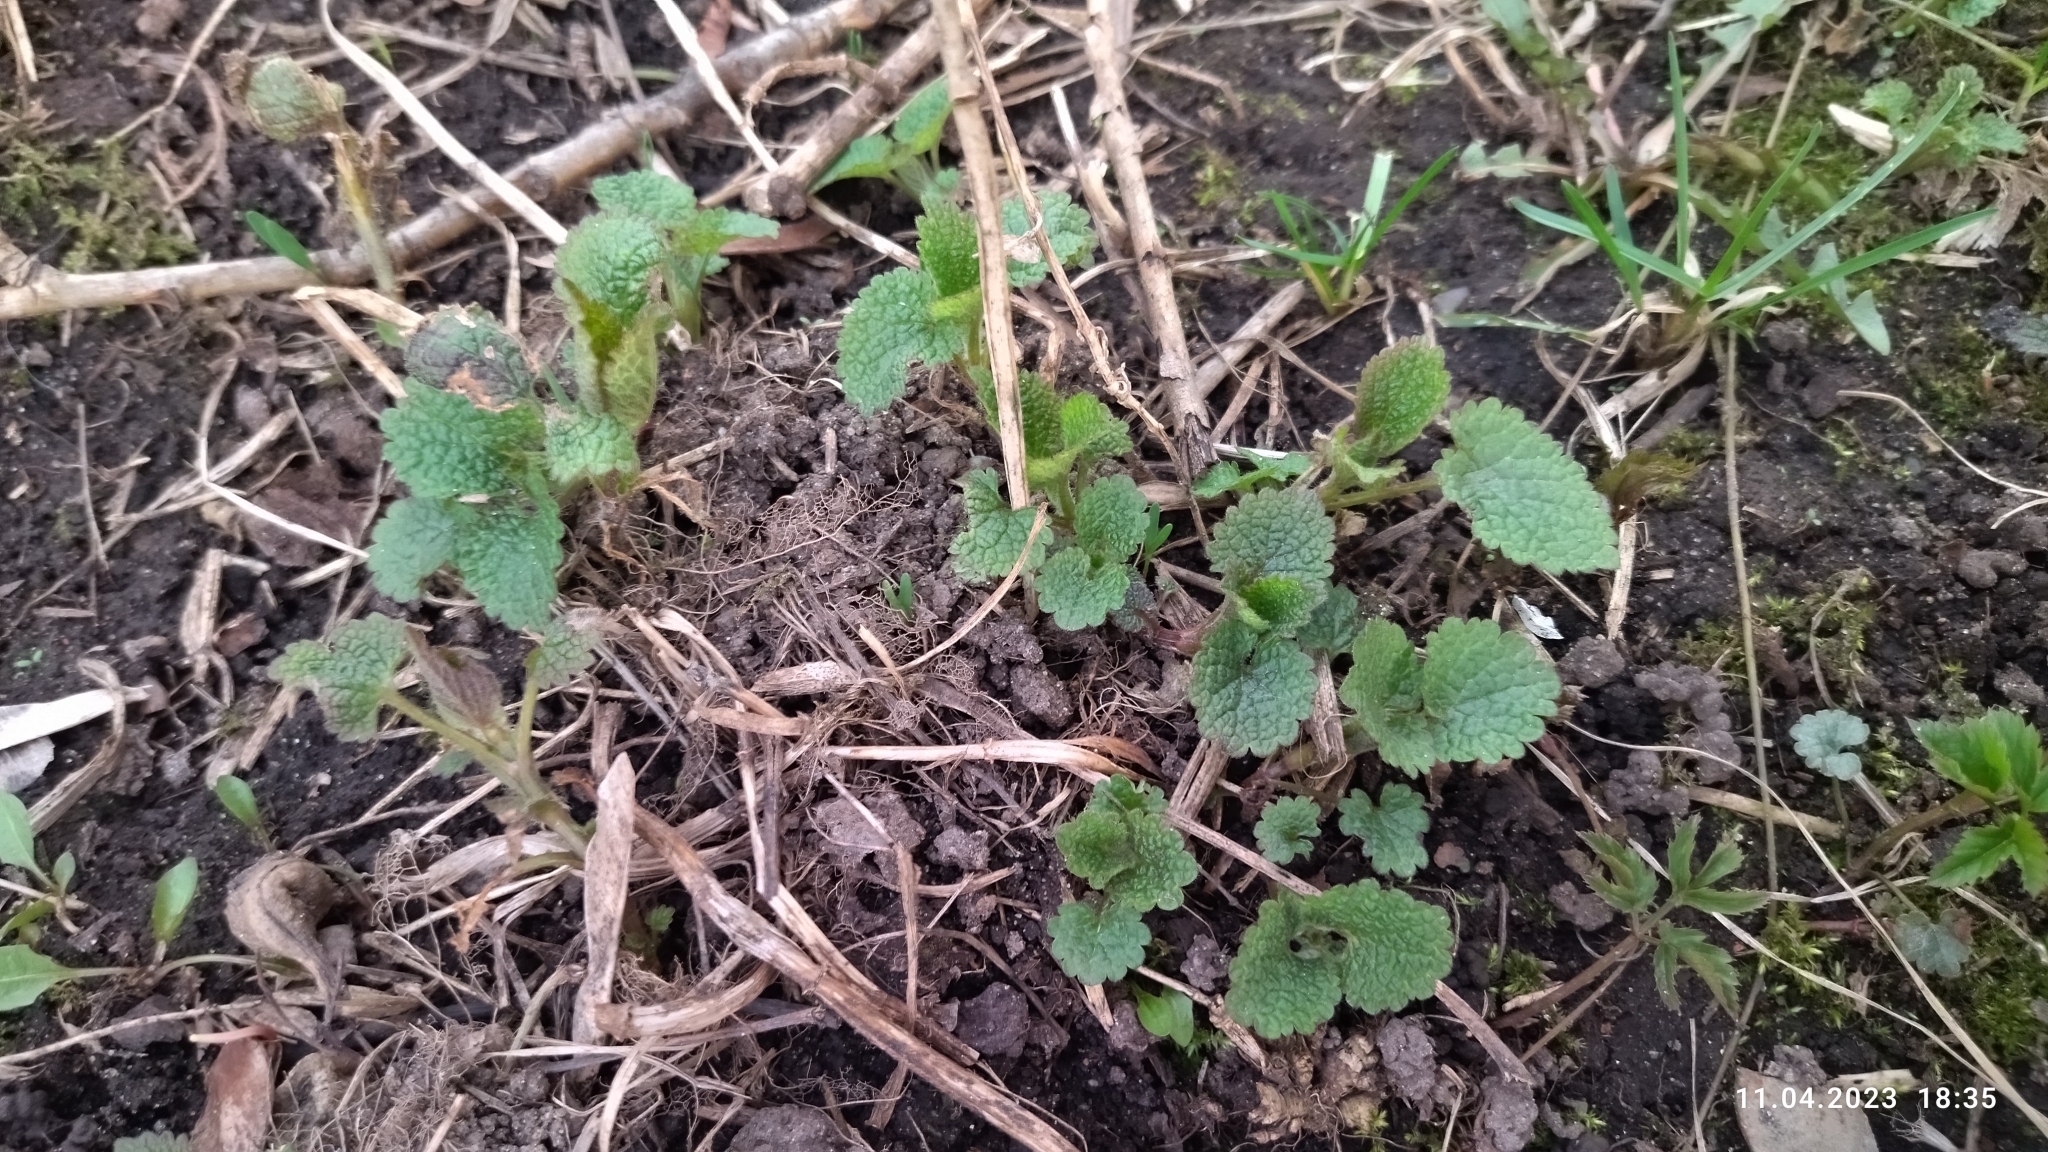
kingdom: Plantae
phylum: Tracheophyta
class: Magnoliopsida
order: Lamiales
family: Lamiaceae
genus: Lamium
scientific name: Lamium album
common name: White dead-nettle
